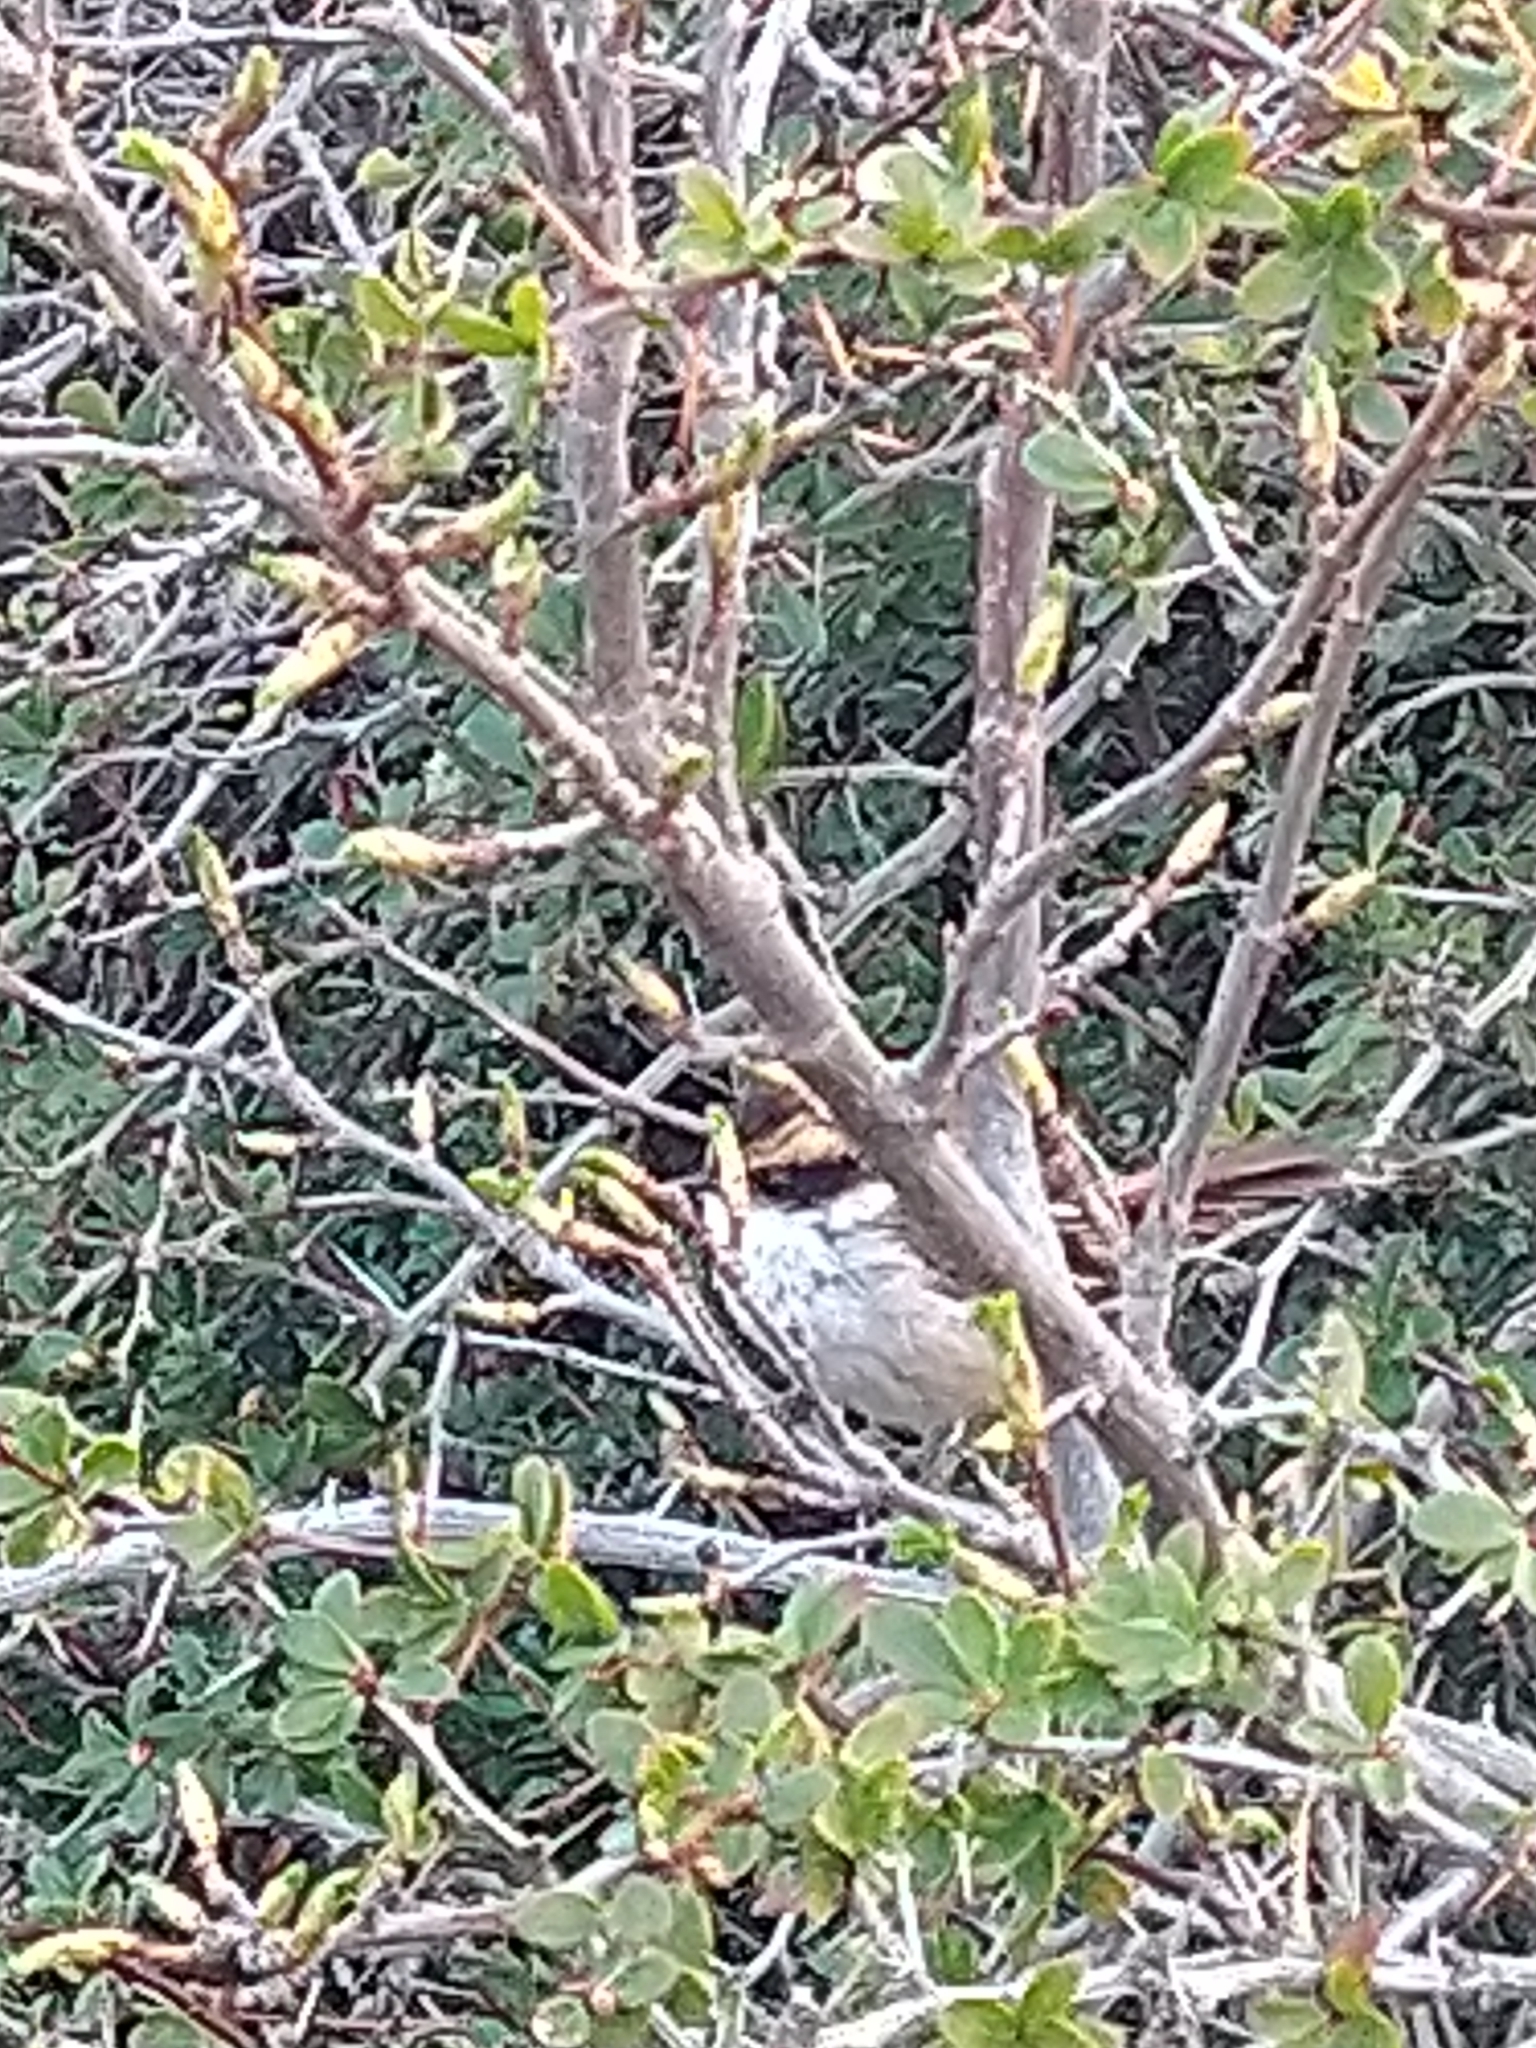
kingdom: Animalia
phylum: Chordata
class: Aves
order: Passeriformes
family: Furnariidae
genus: Aphrastura
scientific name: Aphrastura spinicauda
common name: Thorn-tailed rayadito
